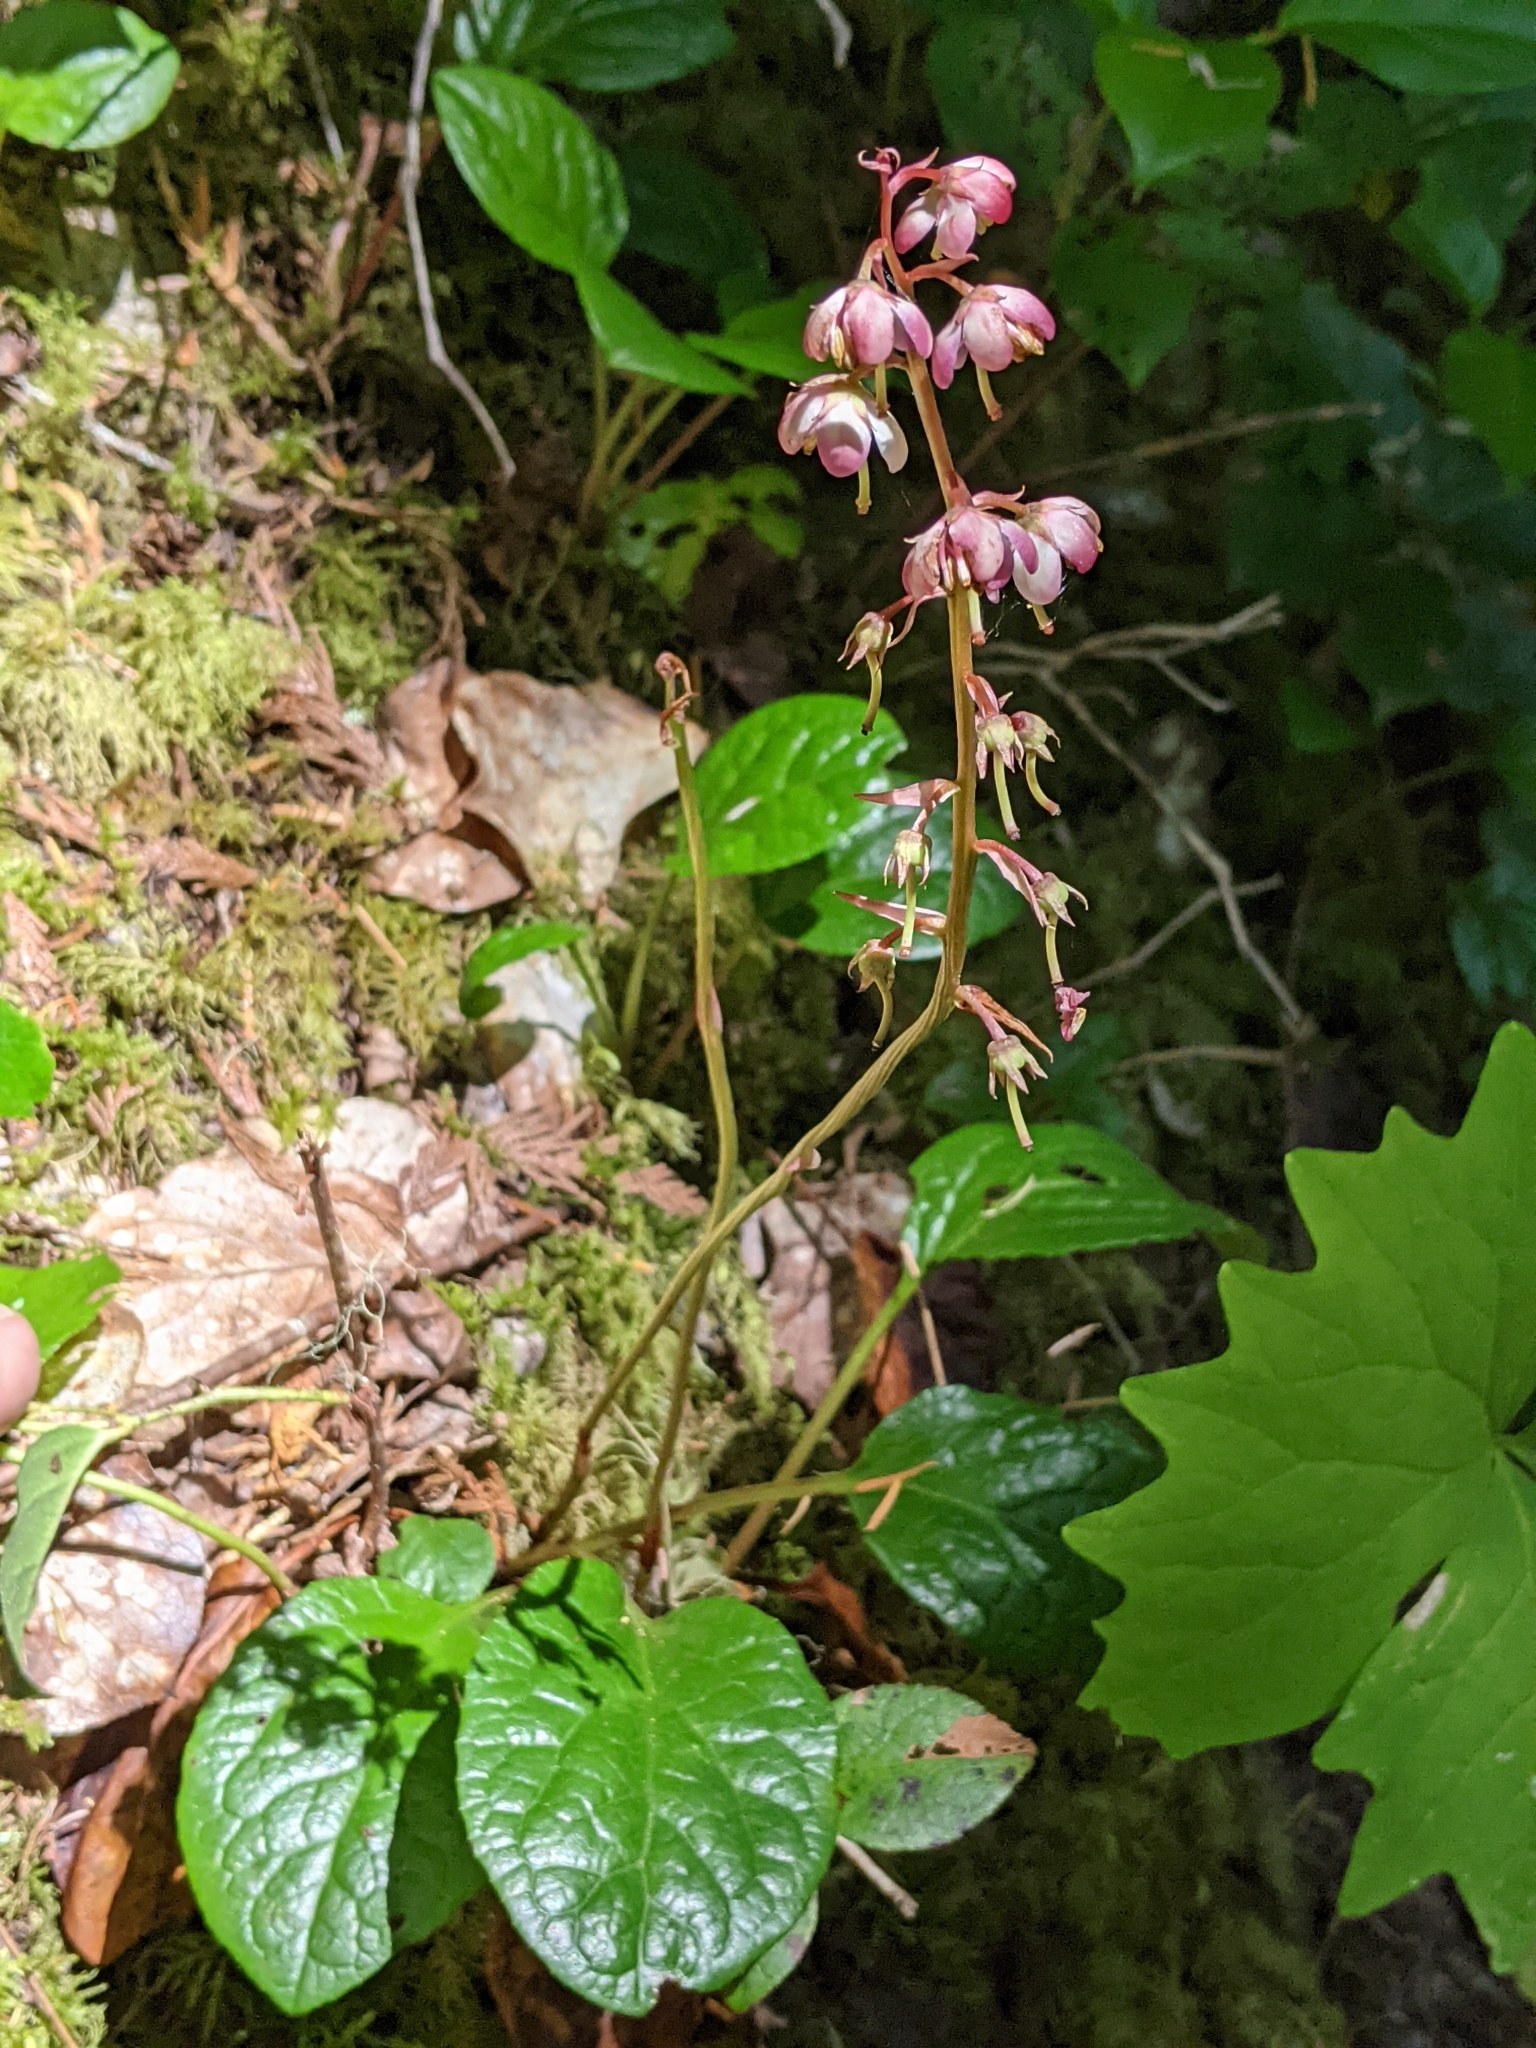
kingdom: Plantae
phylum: Tracheophyta
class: Magnoliopsida
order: Ericales
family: Ericaceae
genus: Pyrola
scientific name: Pyrola asarifolia
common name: Bog wintergreen
